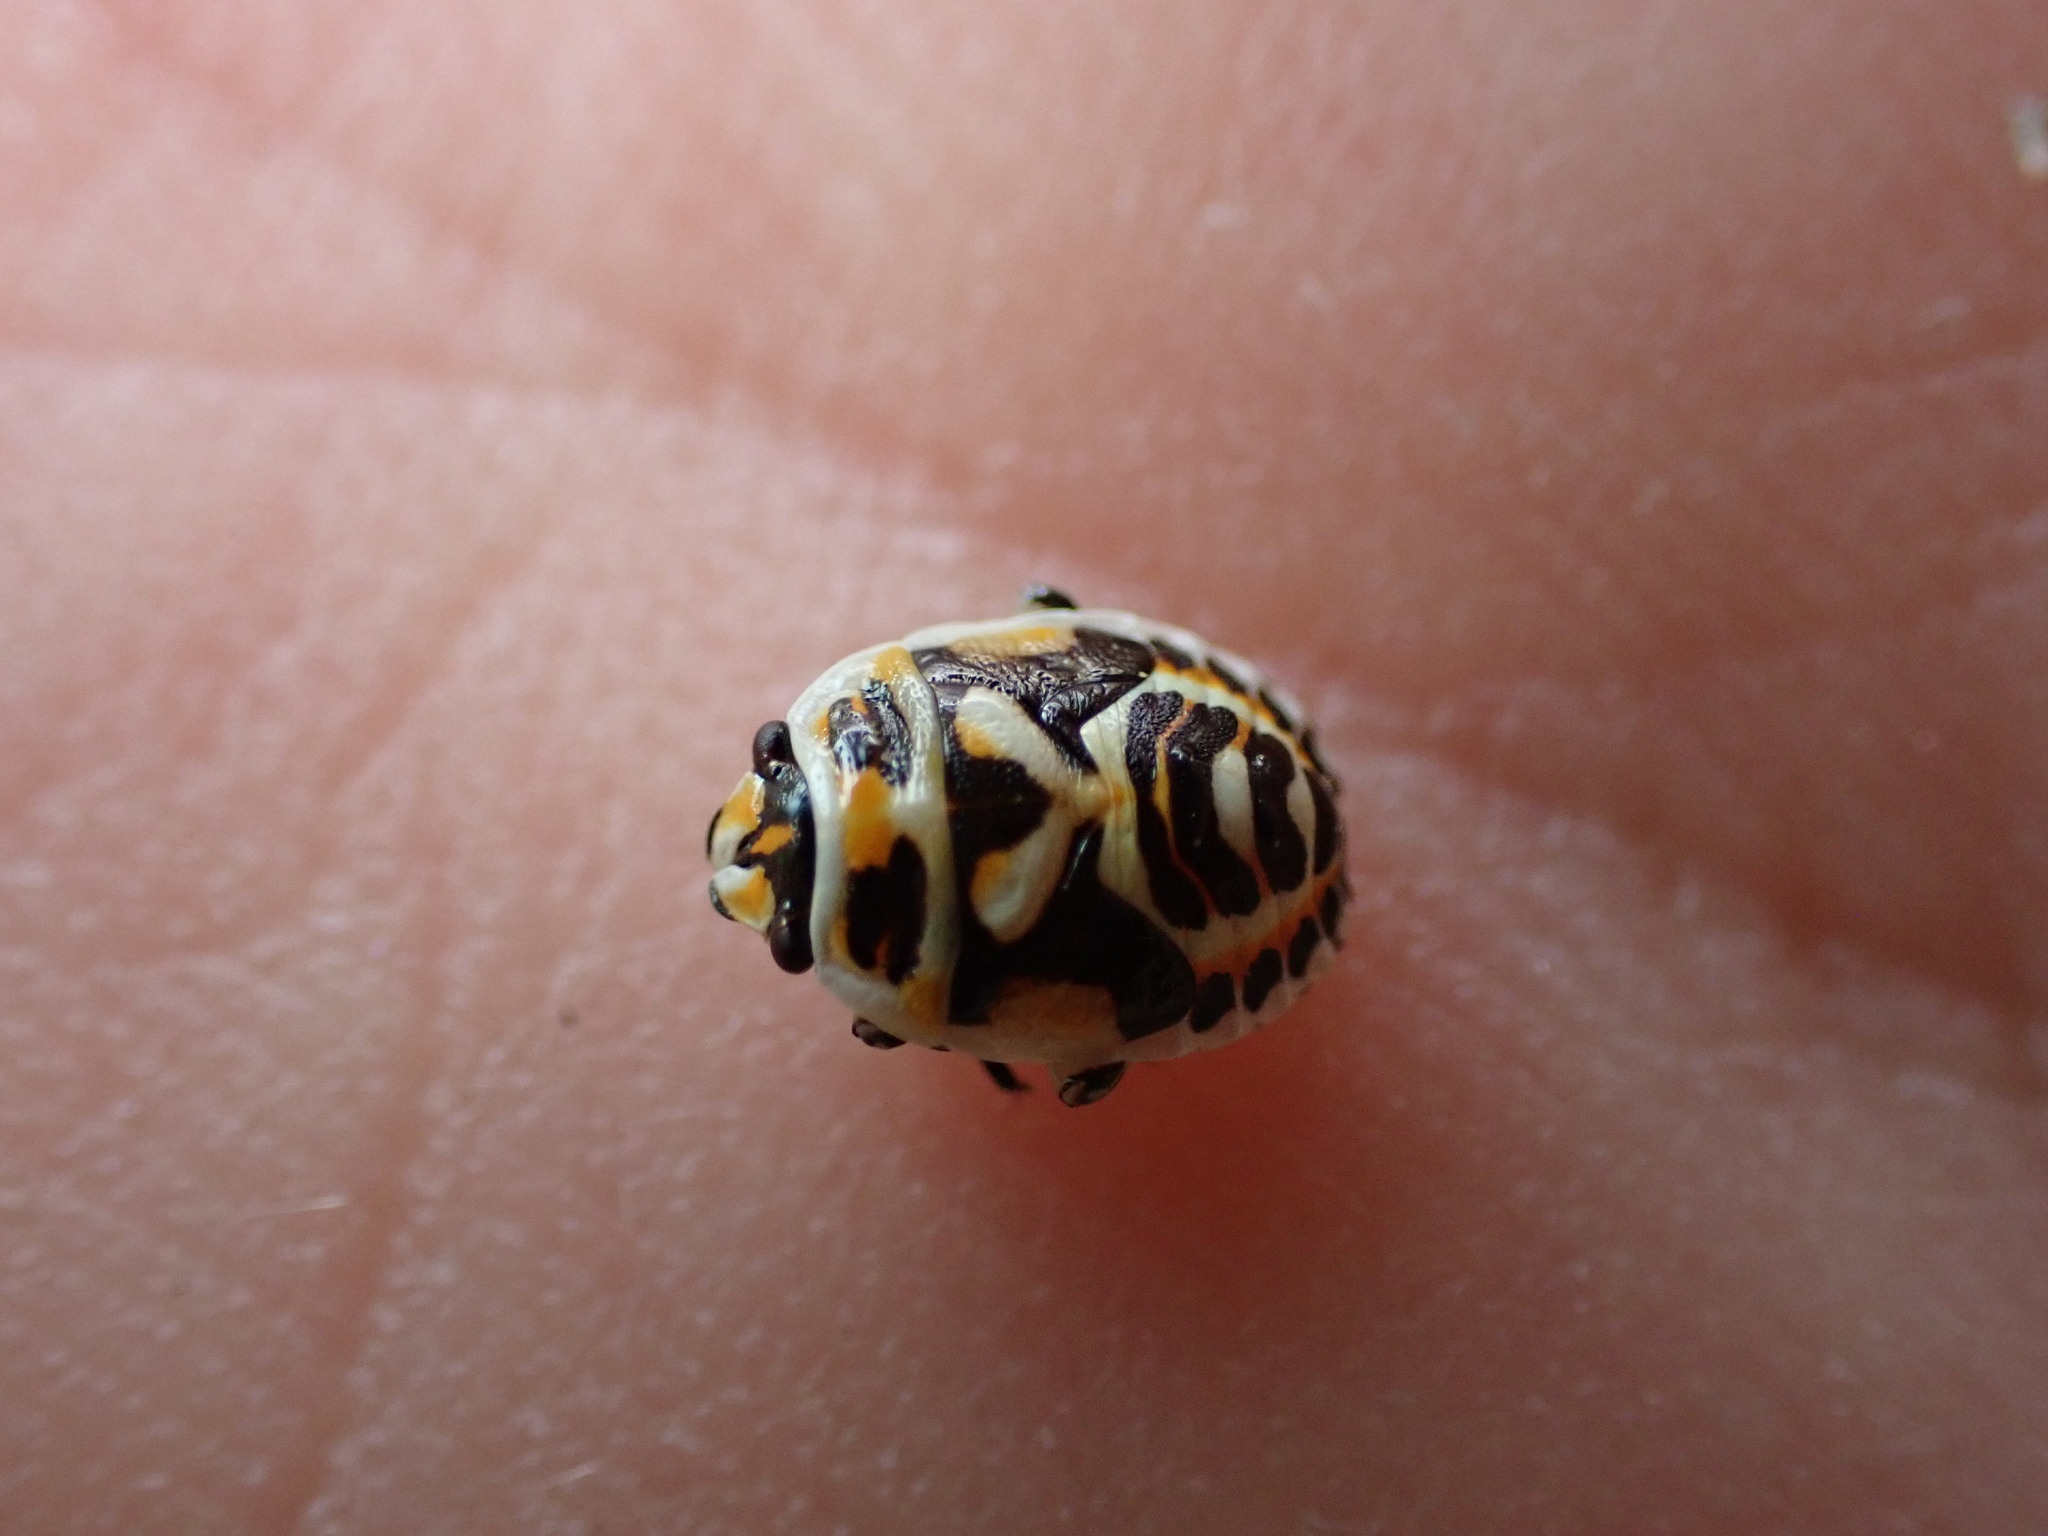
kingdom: Animalia
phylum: Arthropoda
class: Insecta
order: Hemiptera
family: Pentatomidae
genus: Eurydema
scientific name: Eurydema ornata
